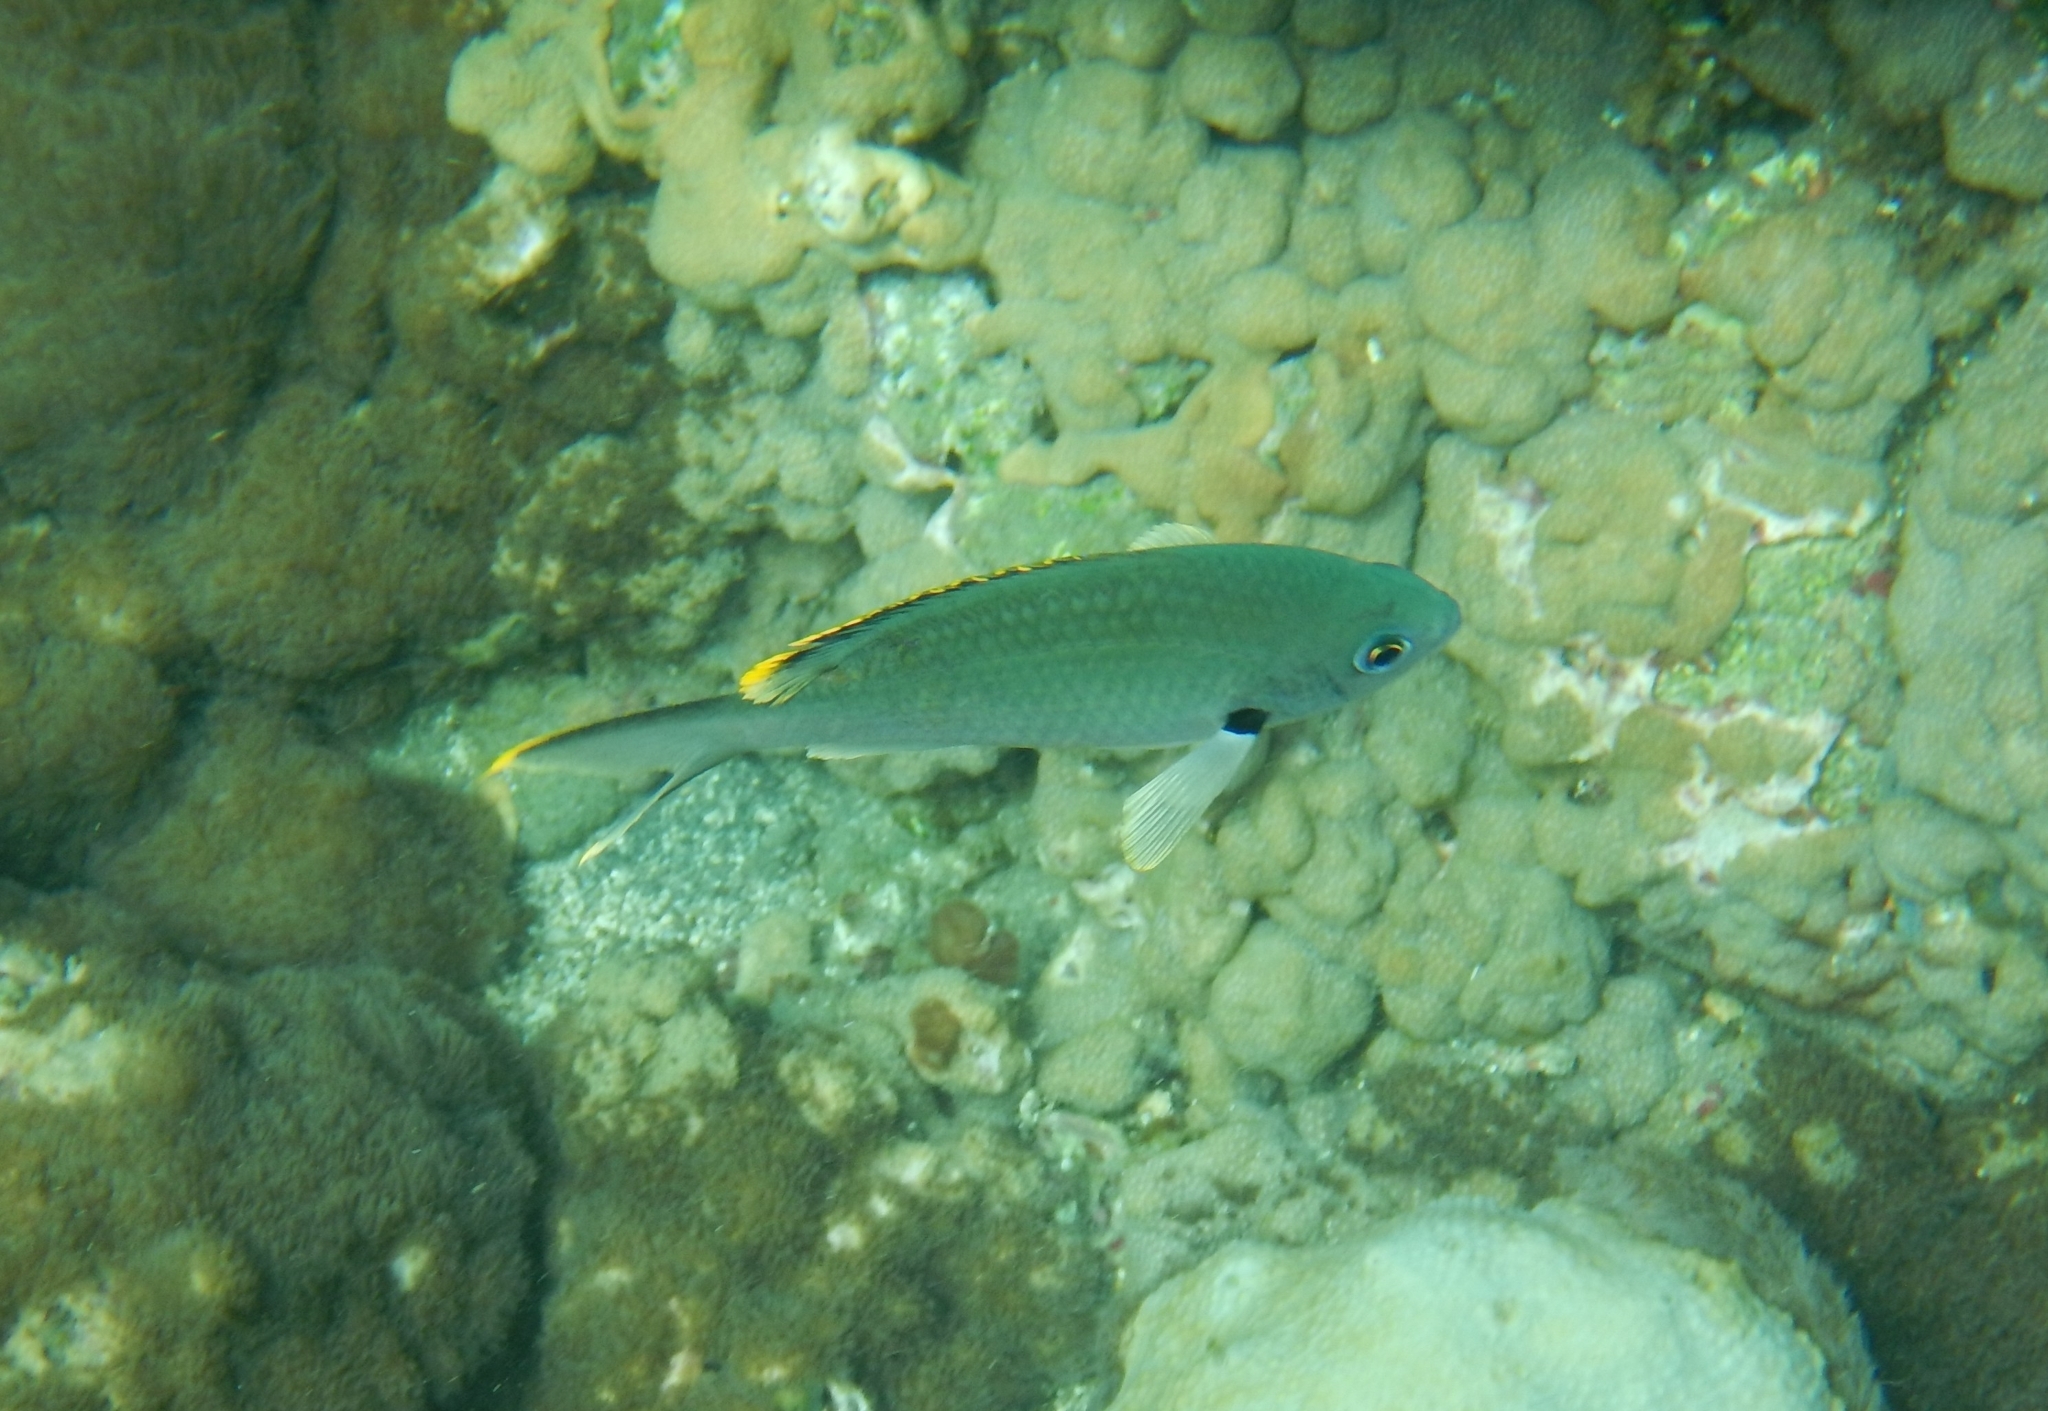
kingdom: Animalia
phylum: Chordata
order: Perciformes
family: Pomacentridae
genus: Chromis
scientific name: Chromis multilineata
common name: Brown chromis
